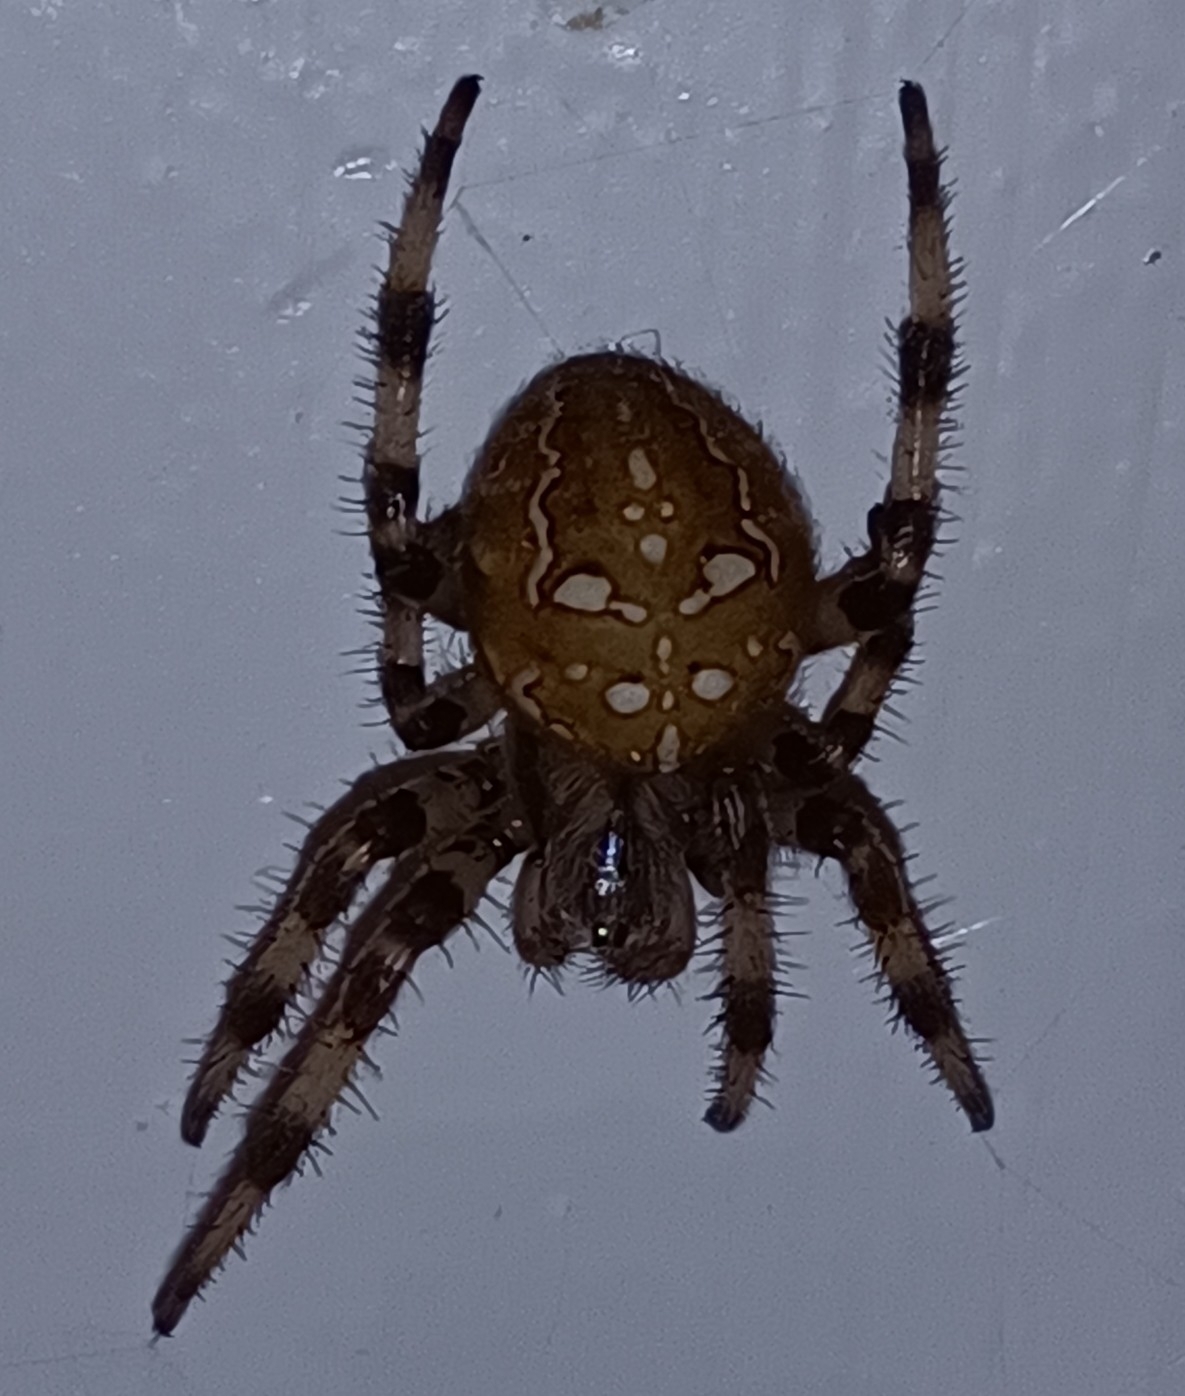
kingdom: Animalia
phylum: Arthropoda
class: Arachnida
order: Araneae
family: Araneidae
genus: Araneus
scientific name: Araneus quadratus
